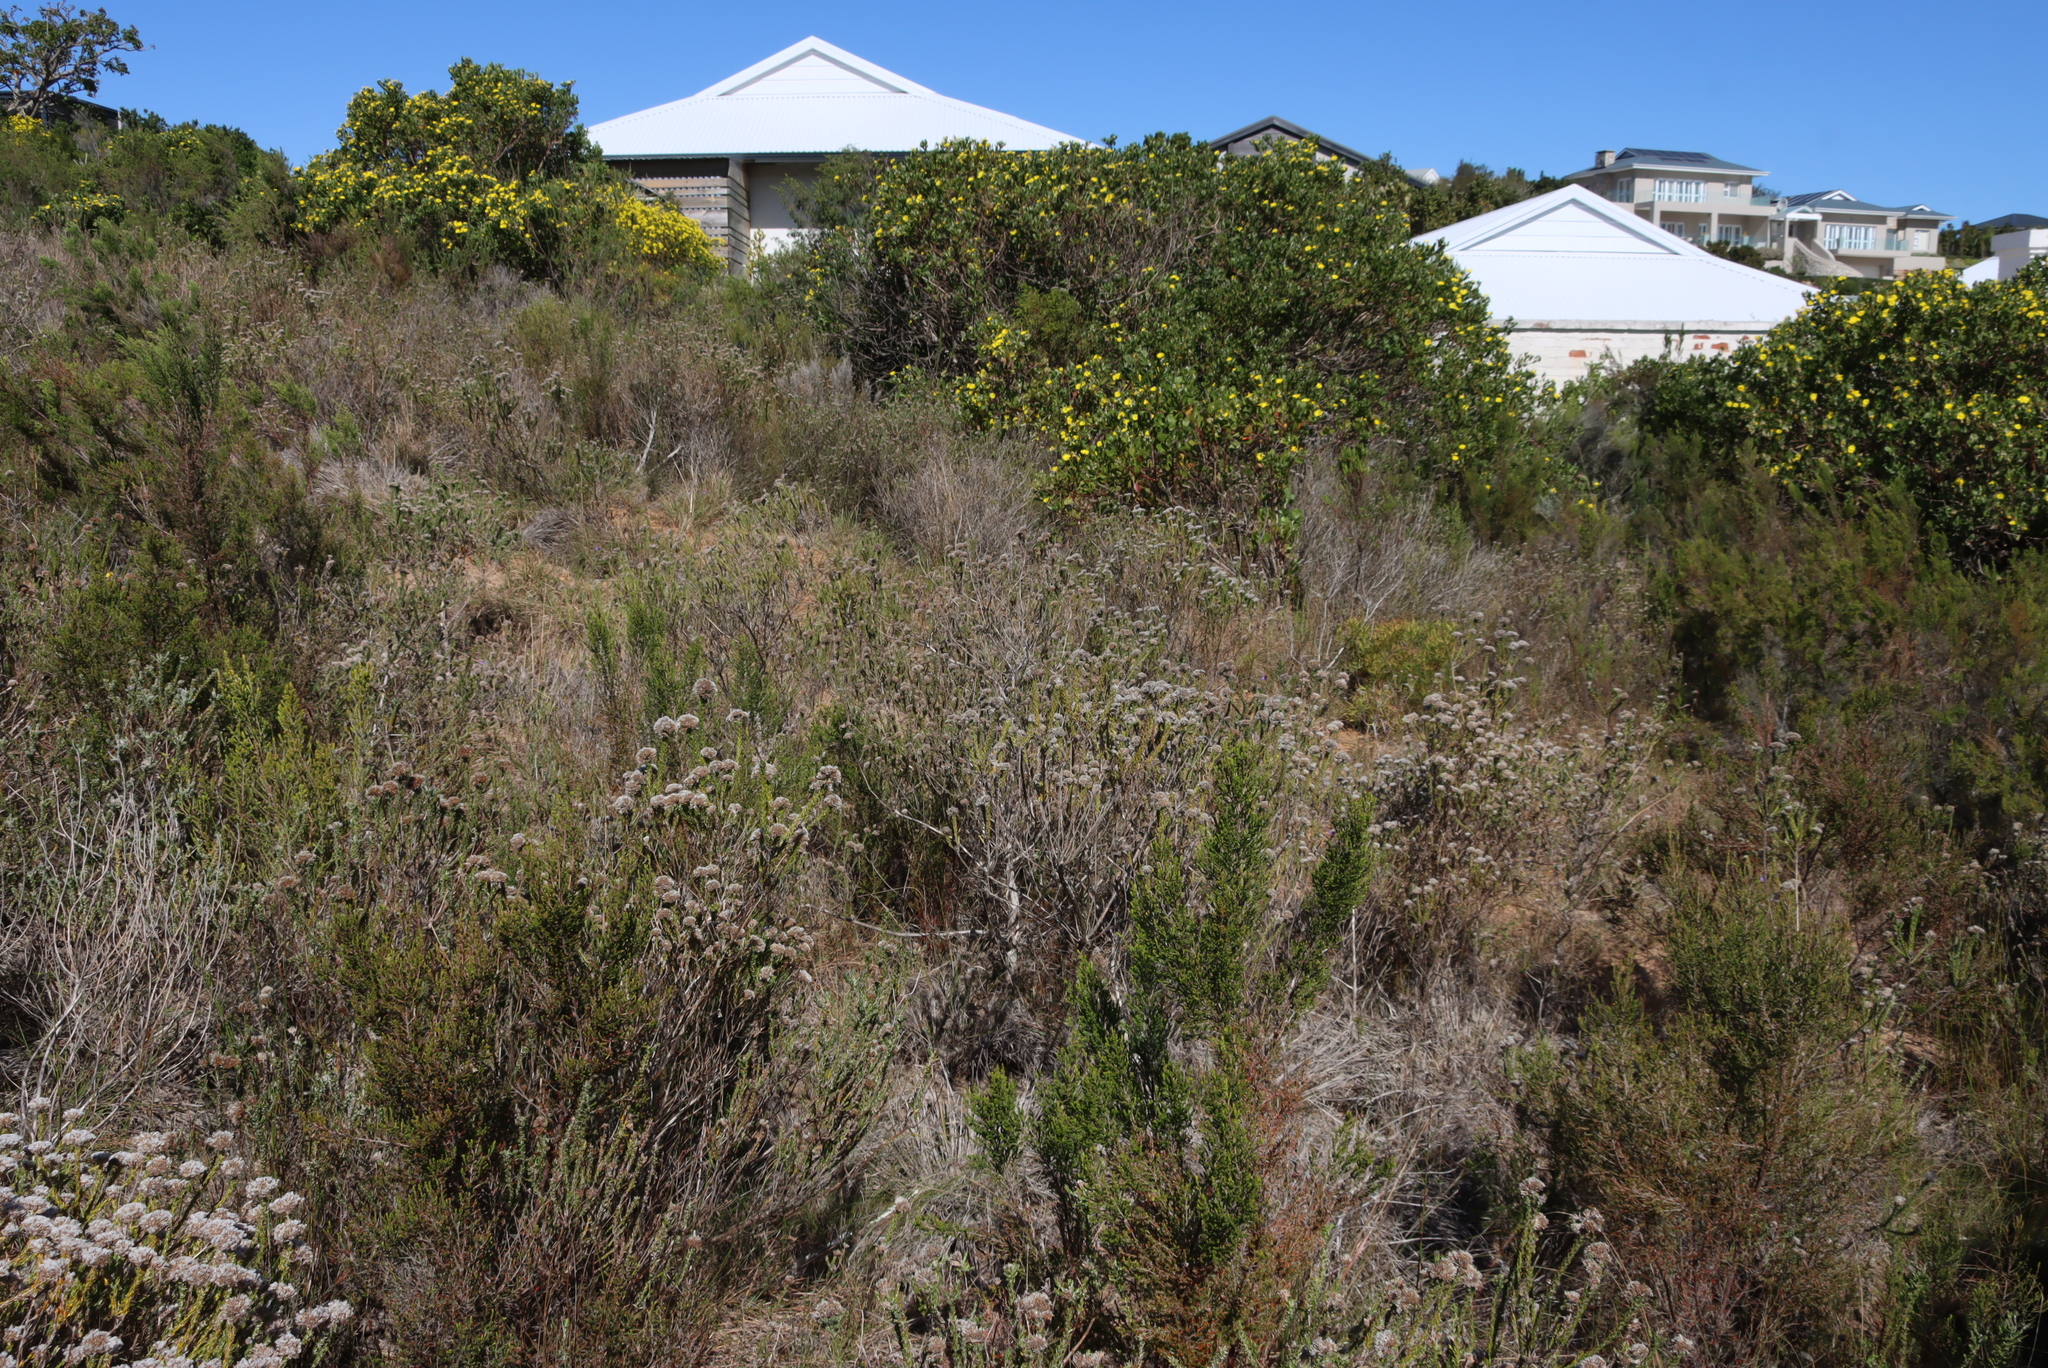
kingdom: Plantae
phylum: Tracheophyta
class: Magnoliopsida
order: Asterales
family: Asteraceae
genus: Osteospermum
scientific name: Osteospermum moniliferum
